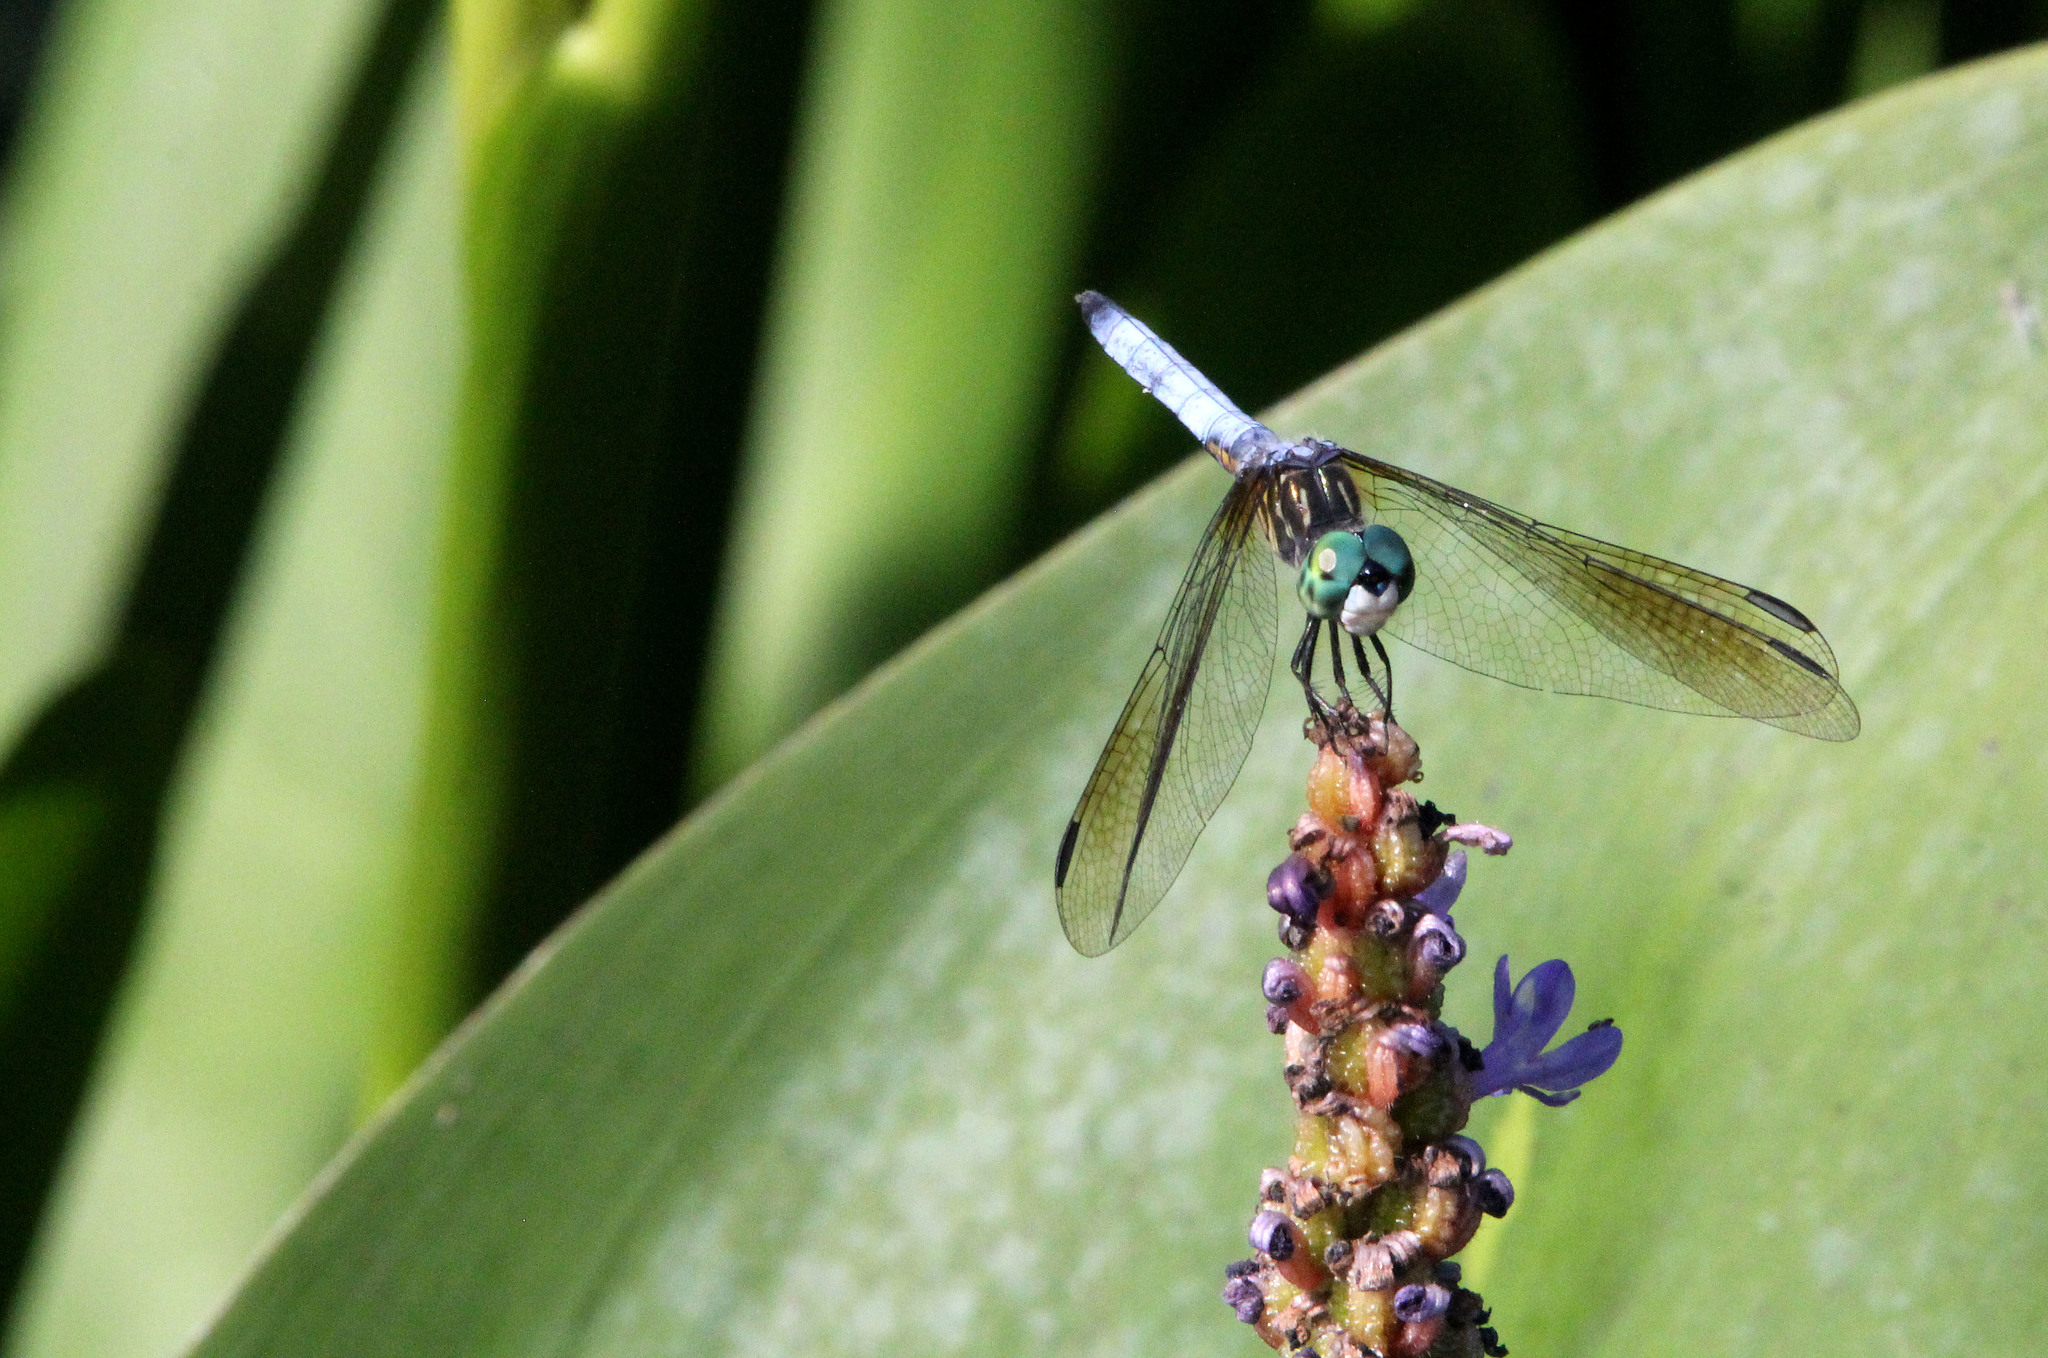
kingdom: Animalia
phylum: Arthropoda
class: Insecta
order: Odonata
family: Libellulidae
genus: Pachydiplax
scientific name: Pachydiplax longipennis
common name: Blue dasher
